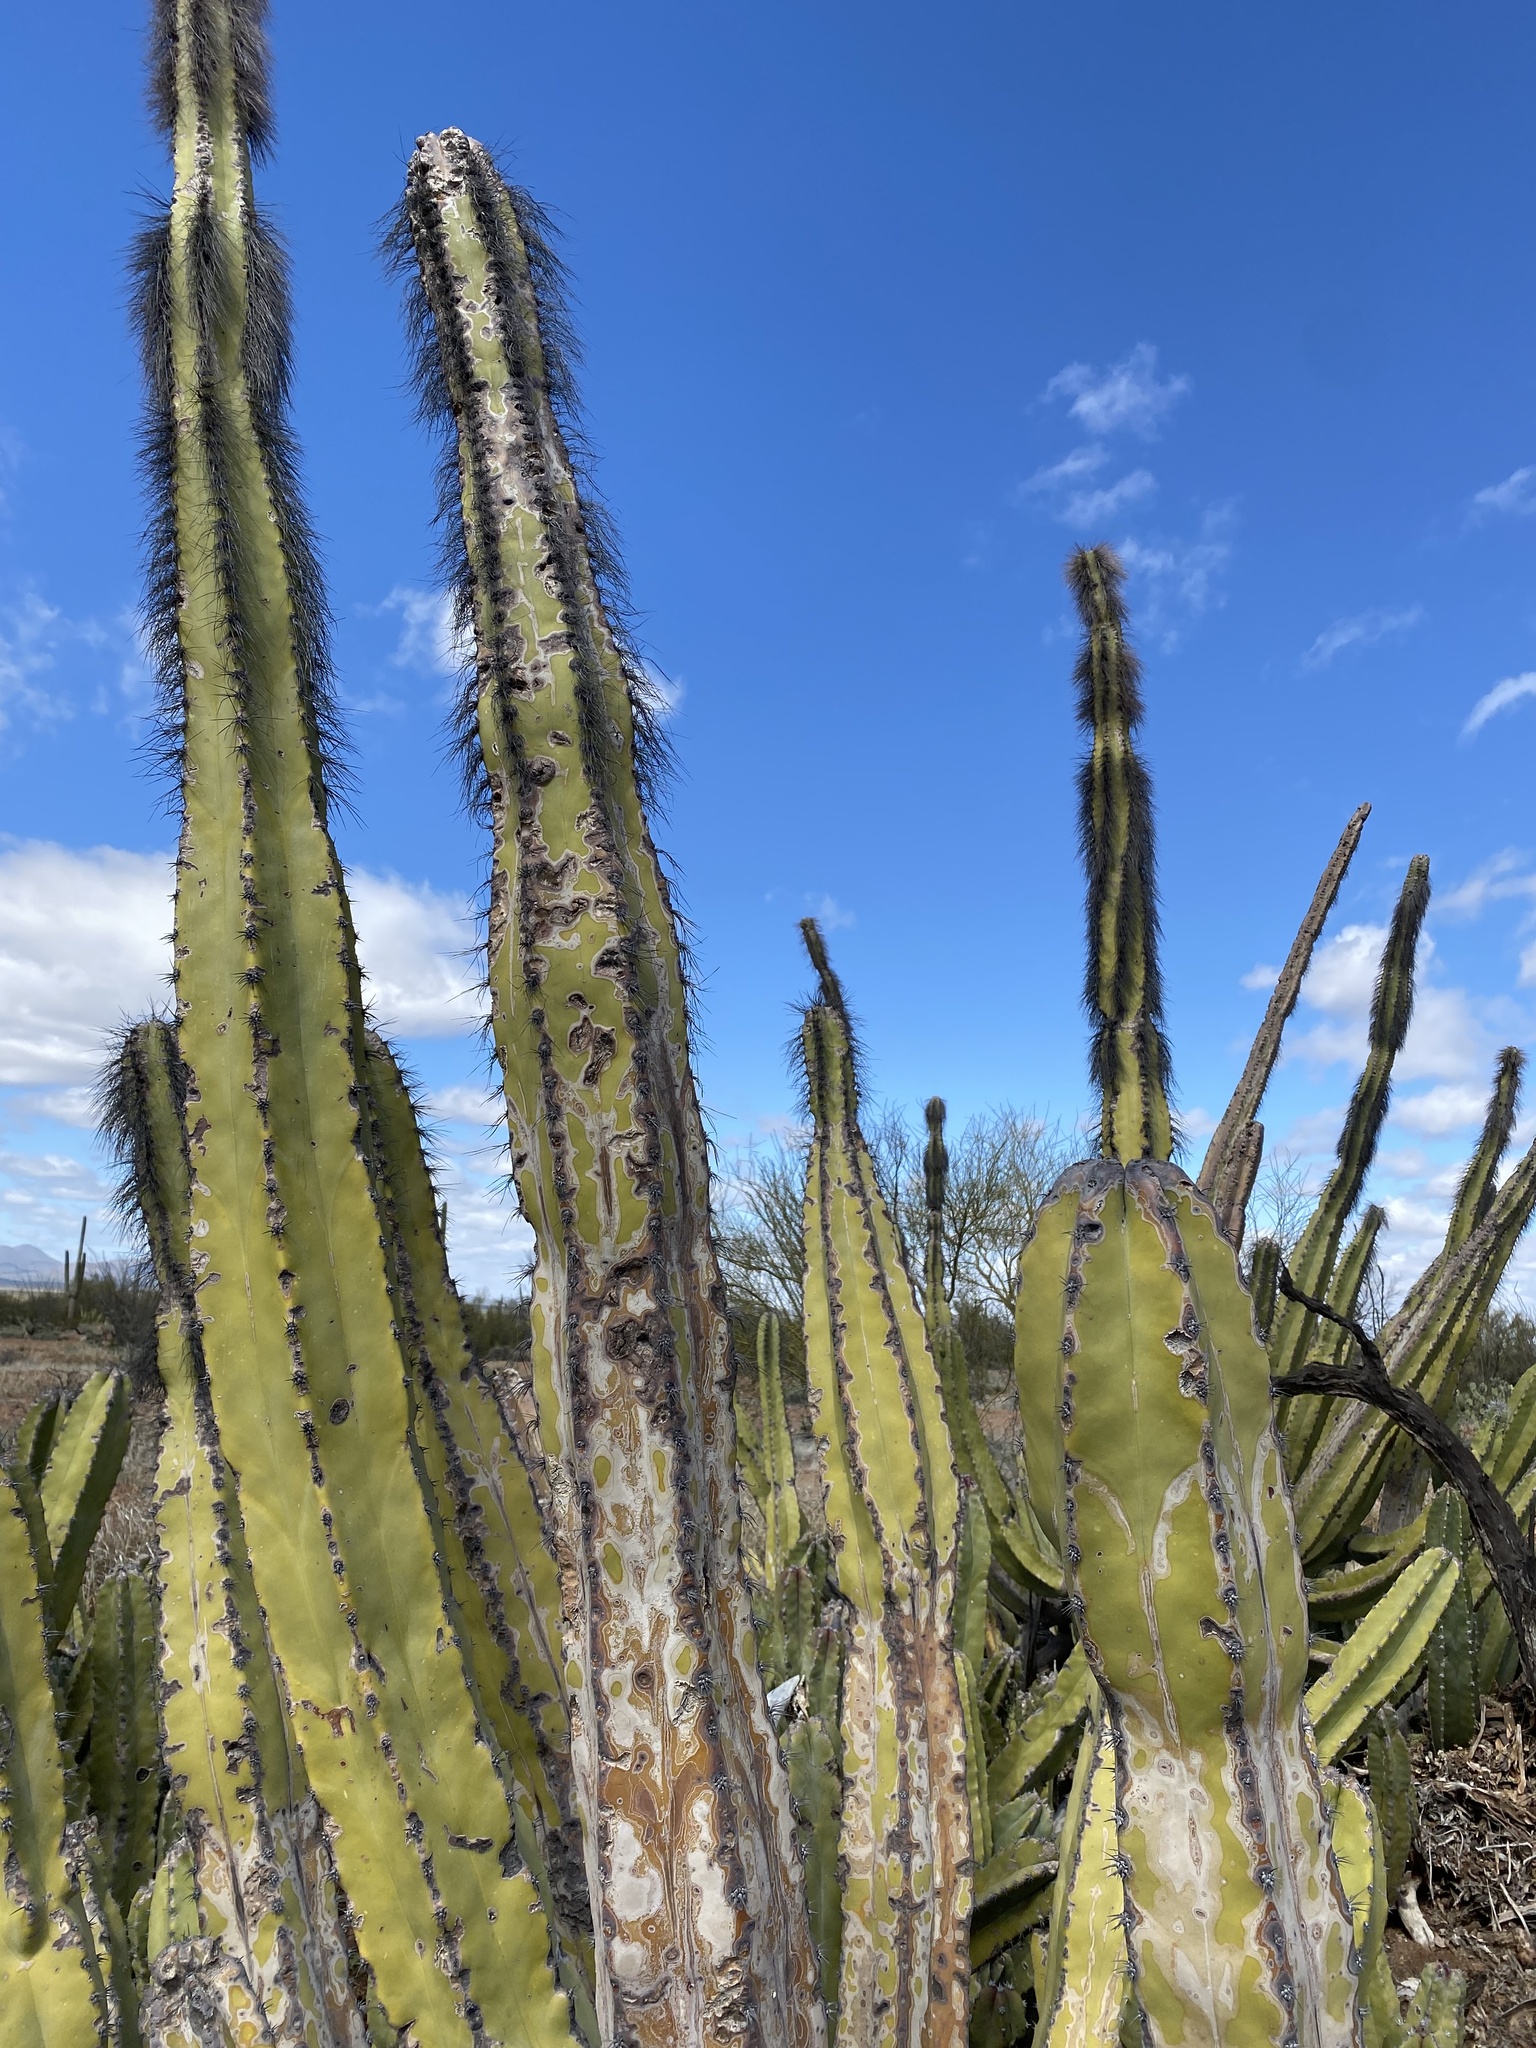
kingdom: Plantae
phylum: Tracheophyta
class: Magnoliopsida
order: Caryophyllales
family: Cactaceae
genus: Pachycereus
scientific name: Pachycereus schottii
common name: Senita cactus
